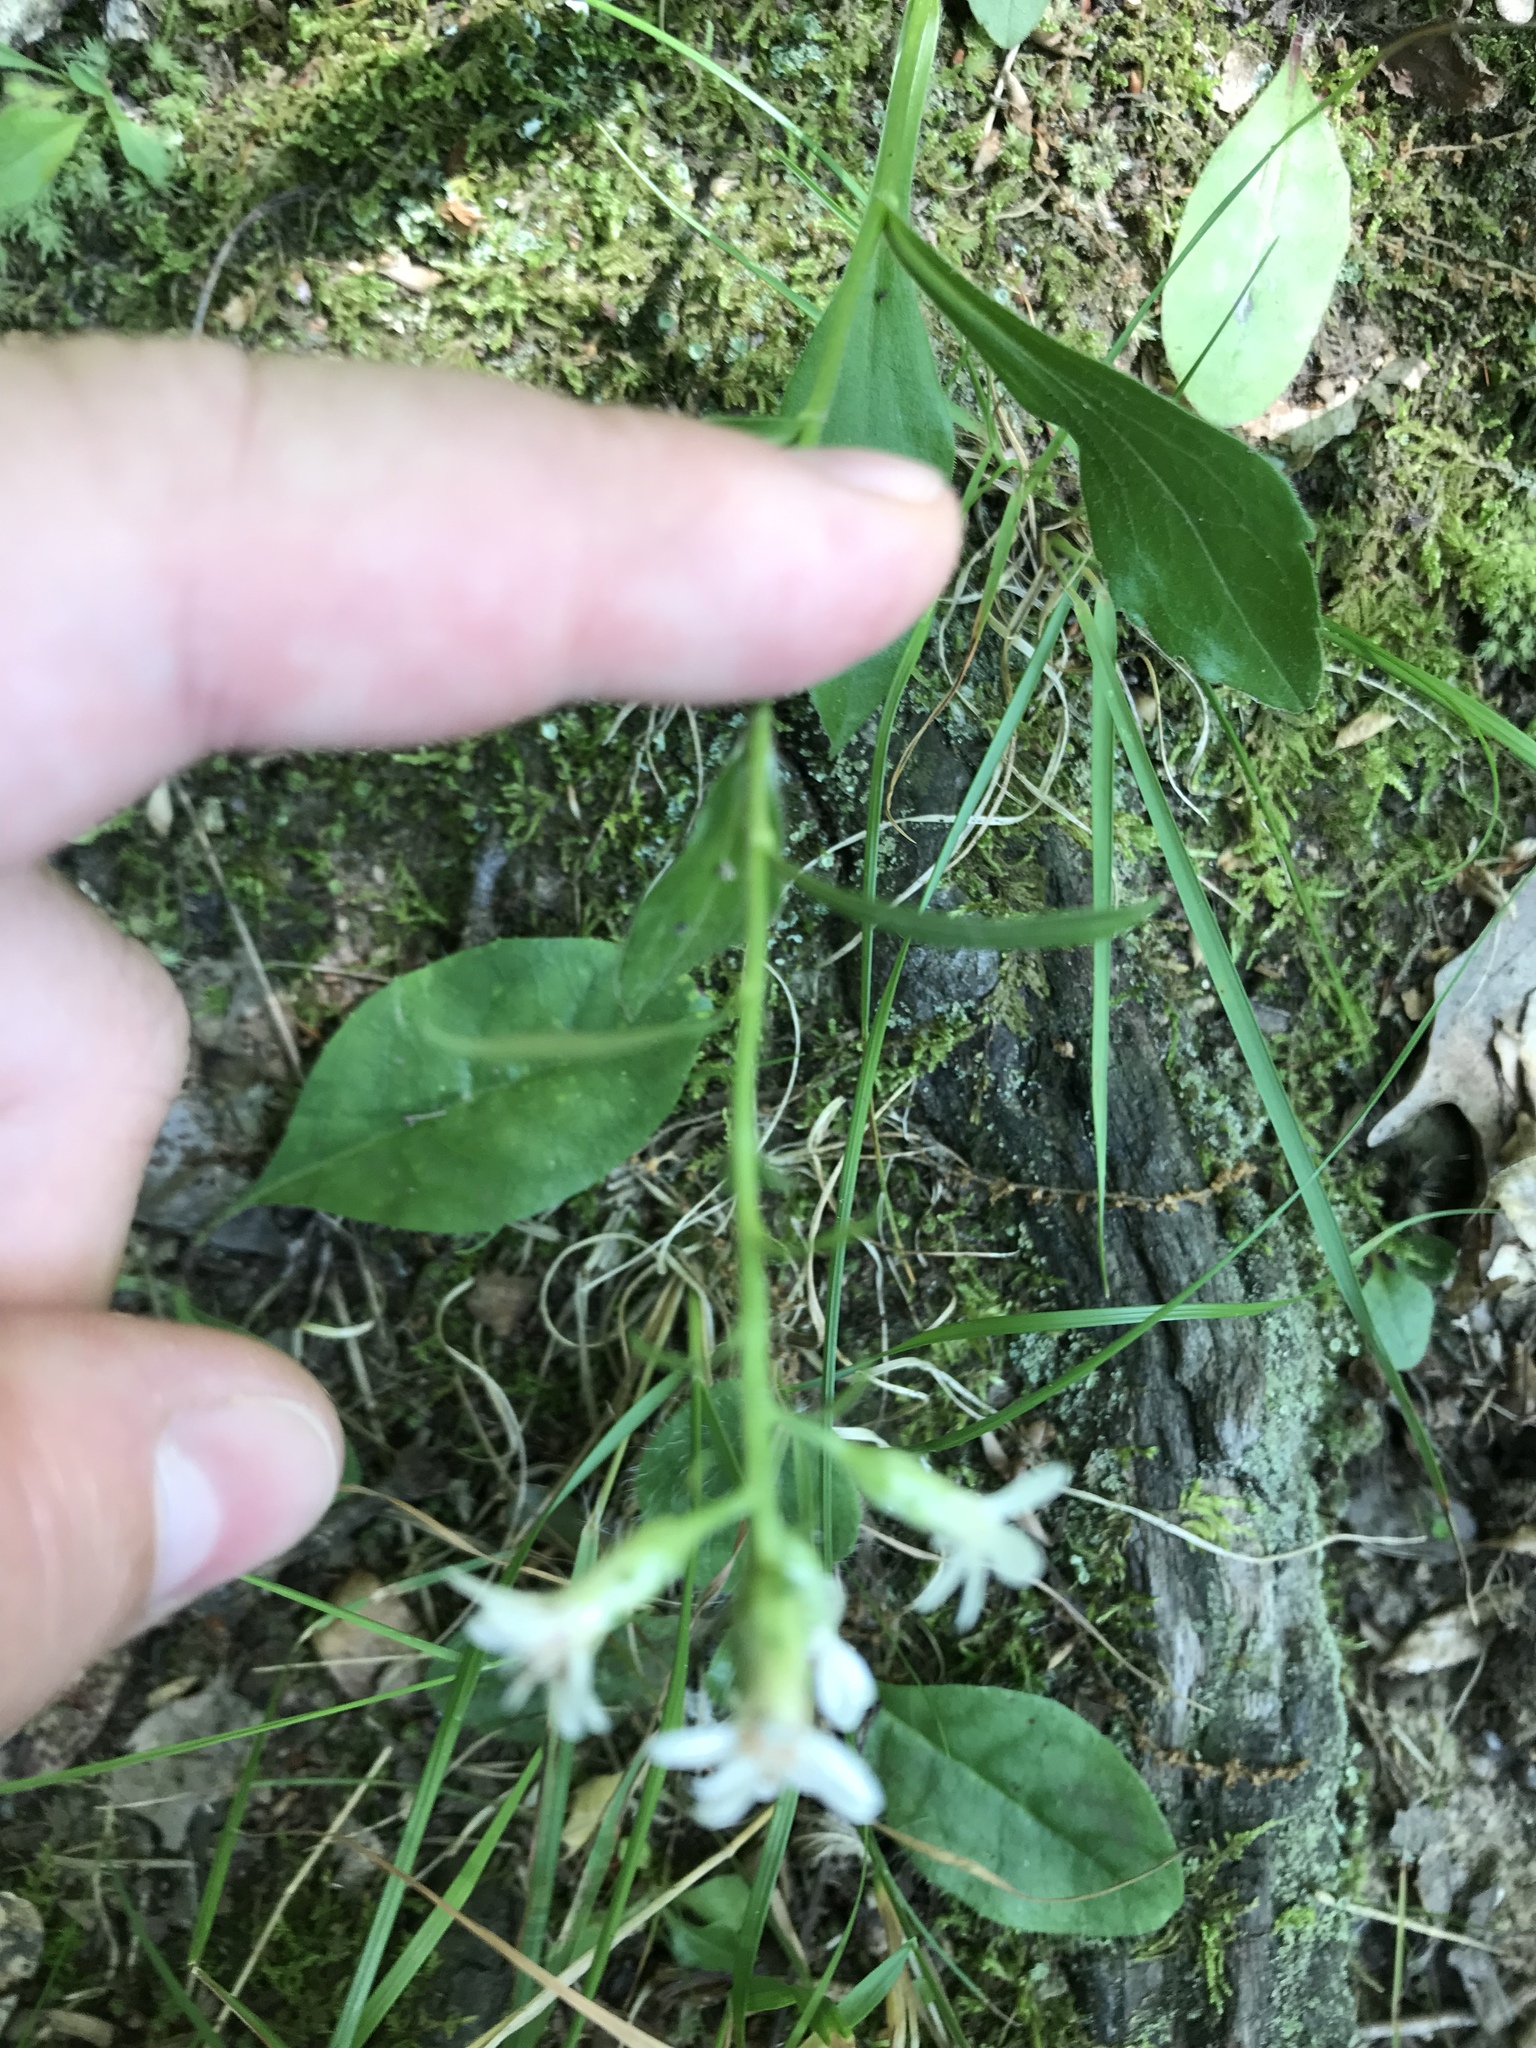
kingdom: Plantae
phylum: Tracheophyta
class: Magnoliopsida
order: Asterales
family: Asteraceae
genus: Sericocarpus
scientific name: Sericocarpus asteroides
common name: Toothed white-top aster
